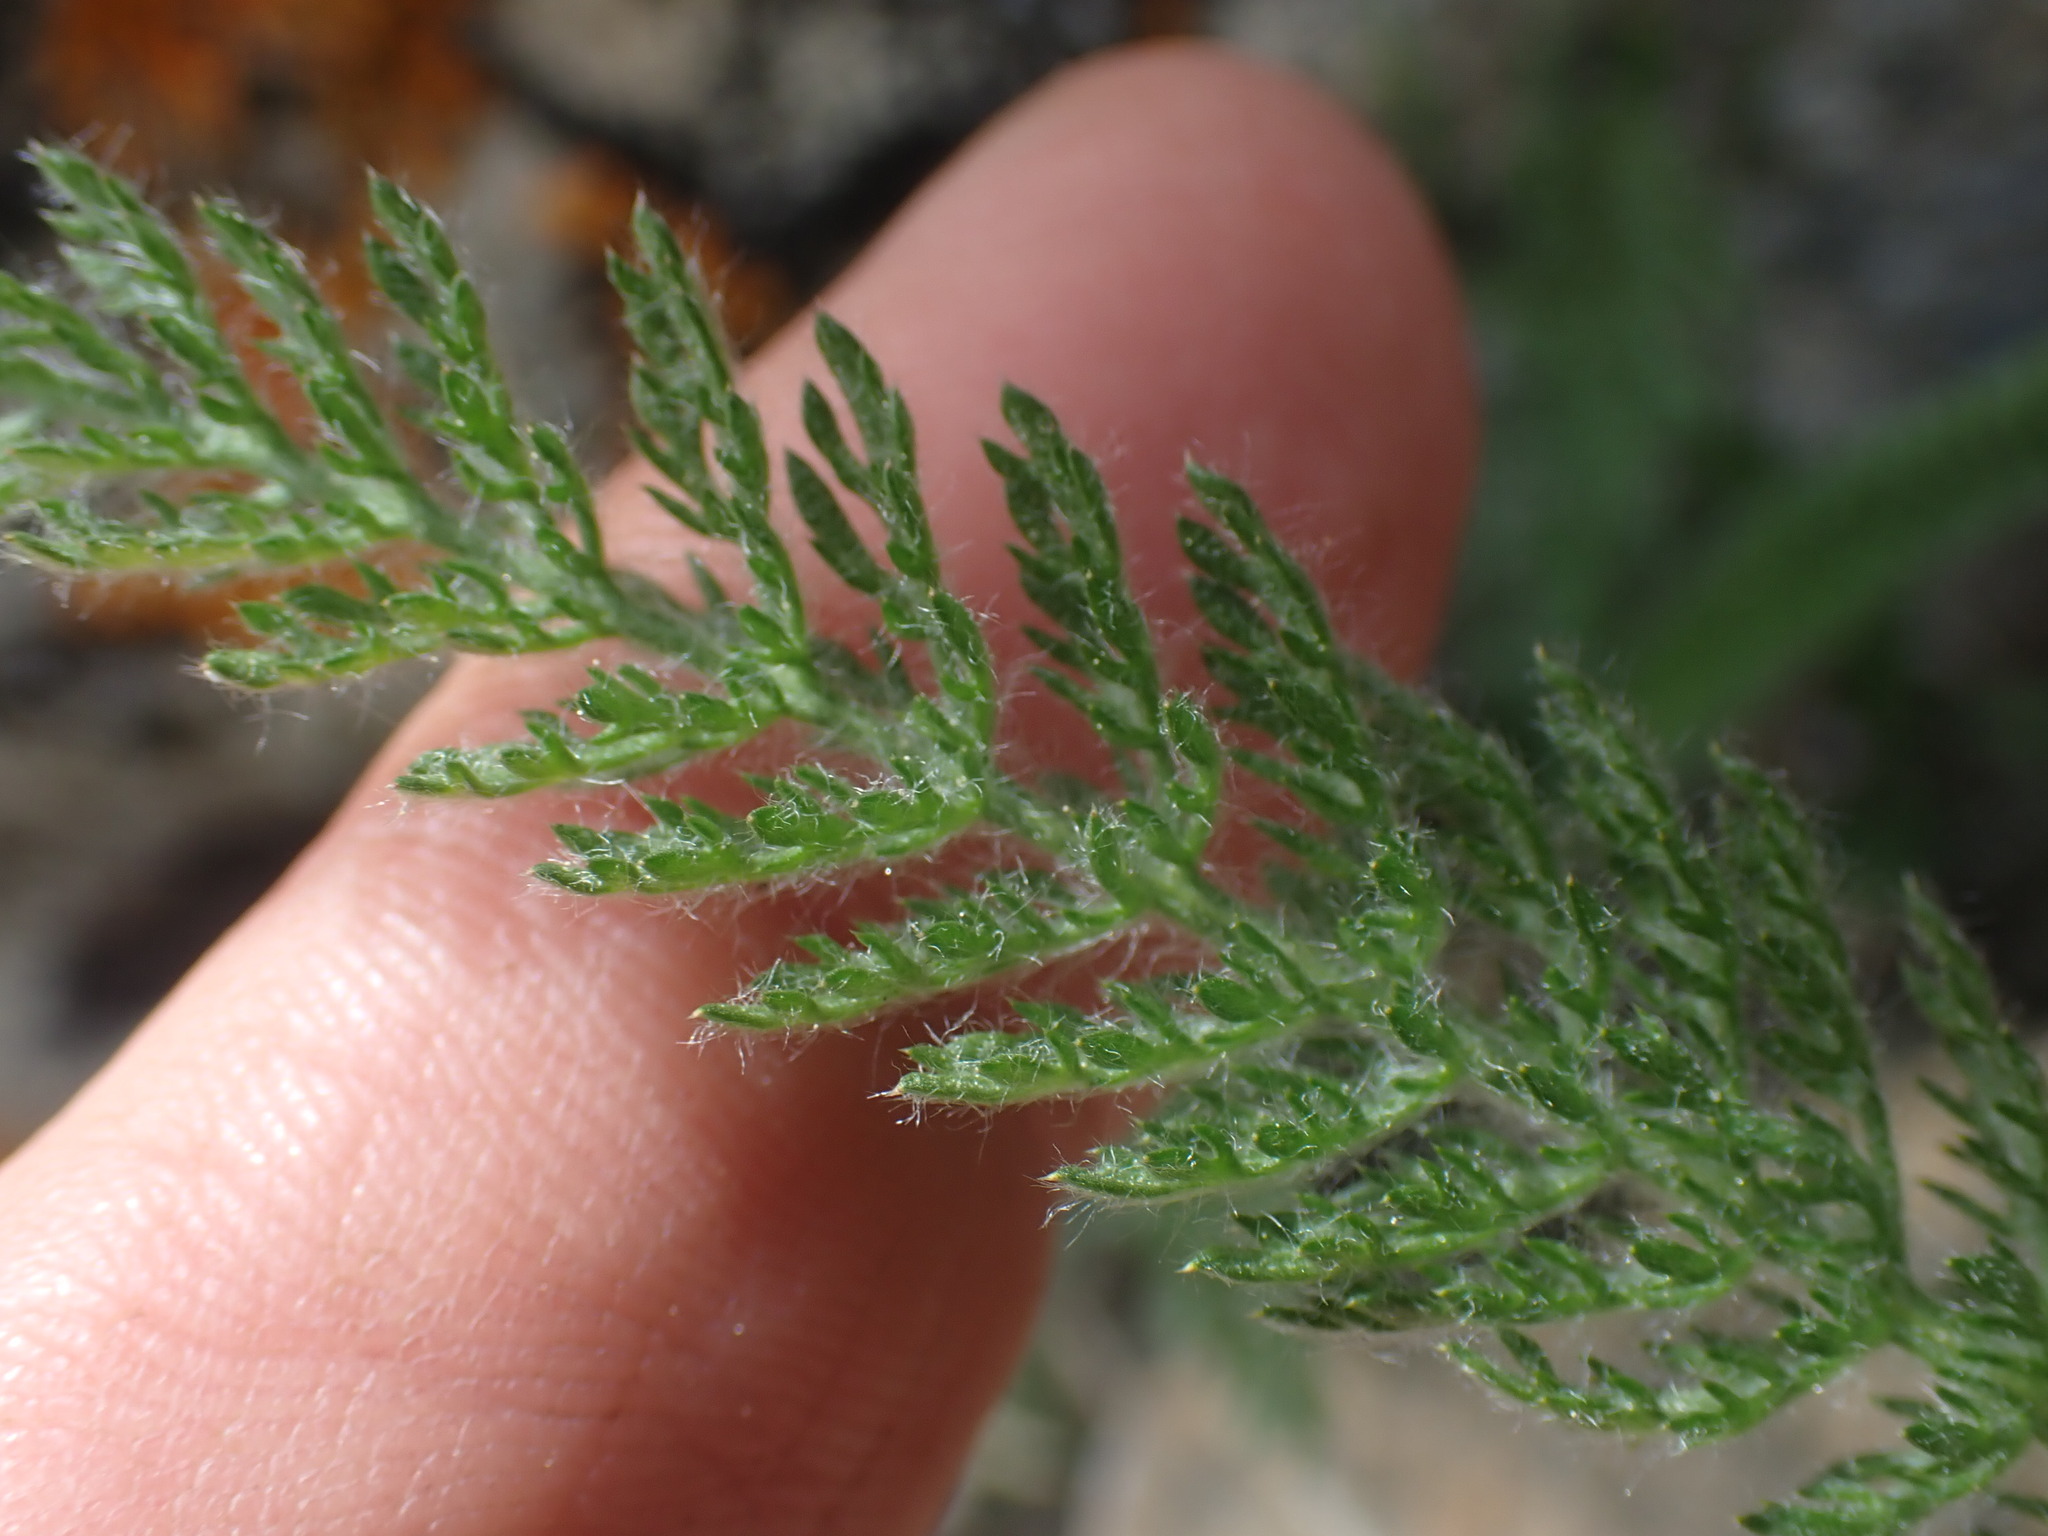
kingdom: Plantae
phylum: Tracheophyta
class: Magnoliopsida
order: Asterales
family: Asteraceae
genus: Achillea
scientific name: Achillea millefolium
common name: Yarrow
